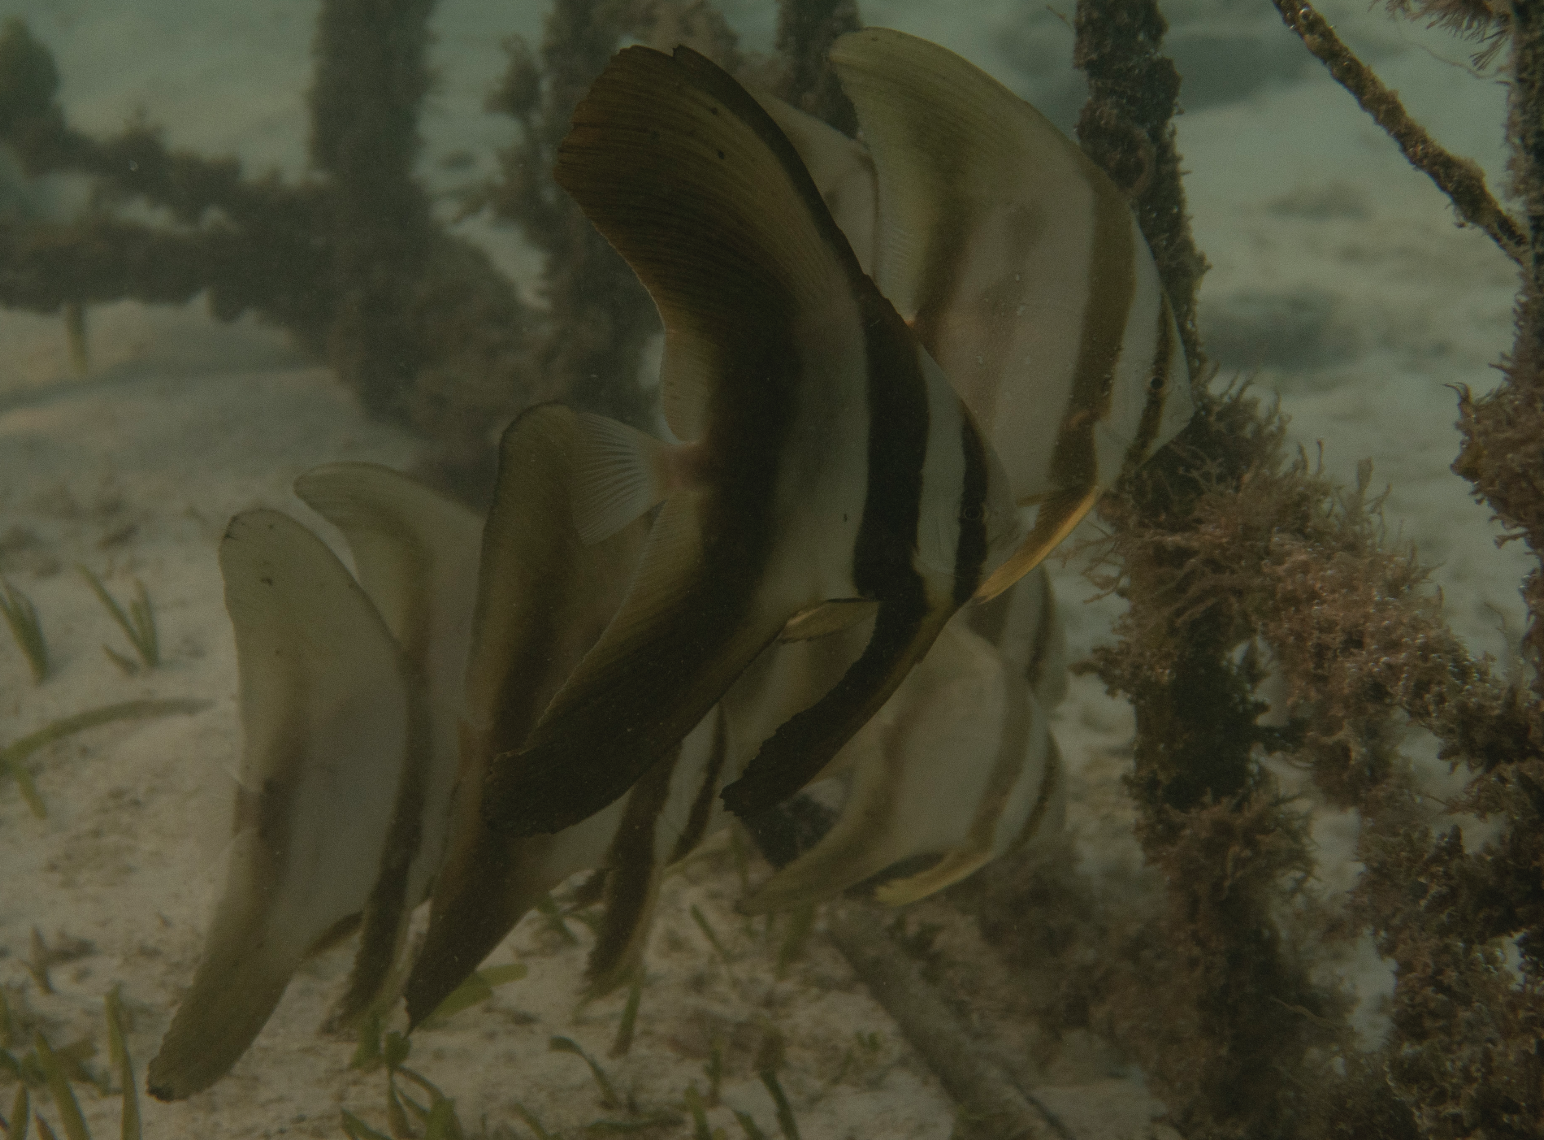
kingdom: Animalia
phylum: Chordata
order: Perciformes
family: Ephippidae
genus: Platax
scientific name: Platax teira
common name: Longfin baitfish
